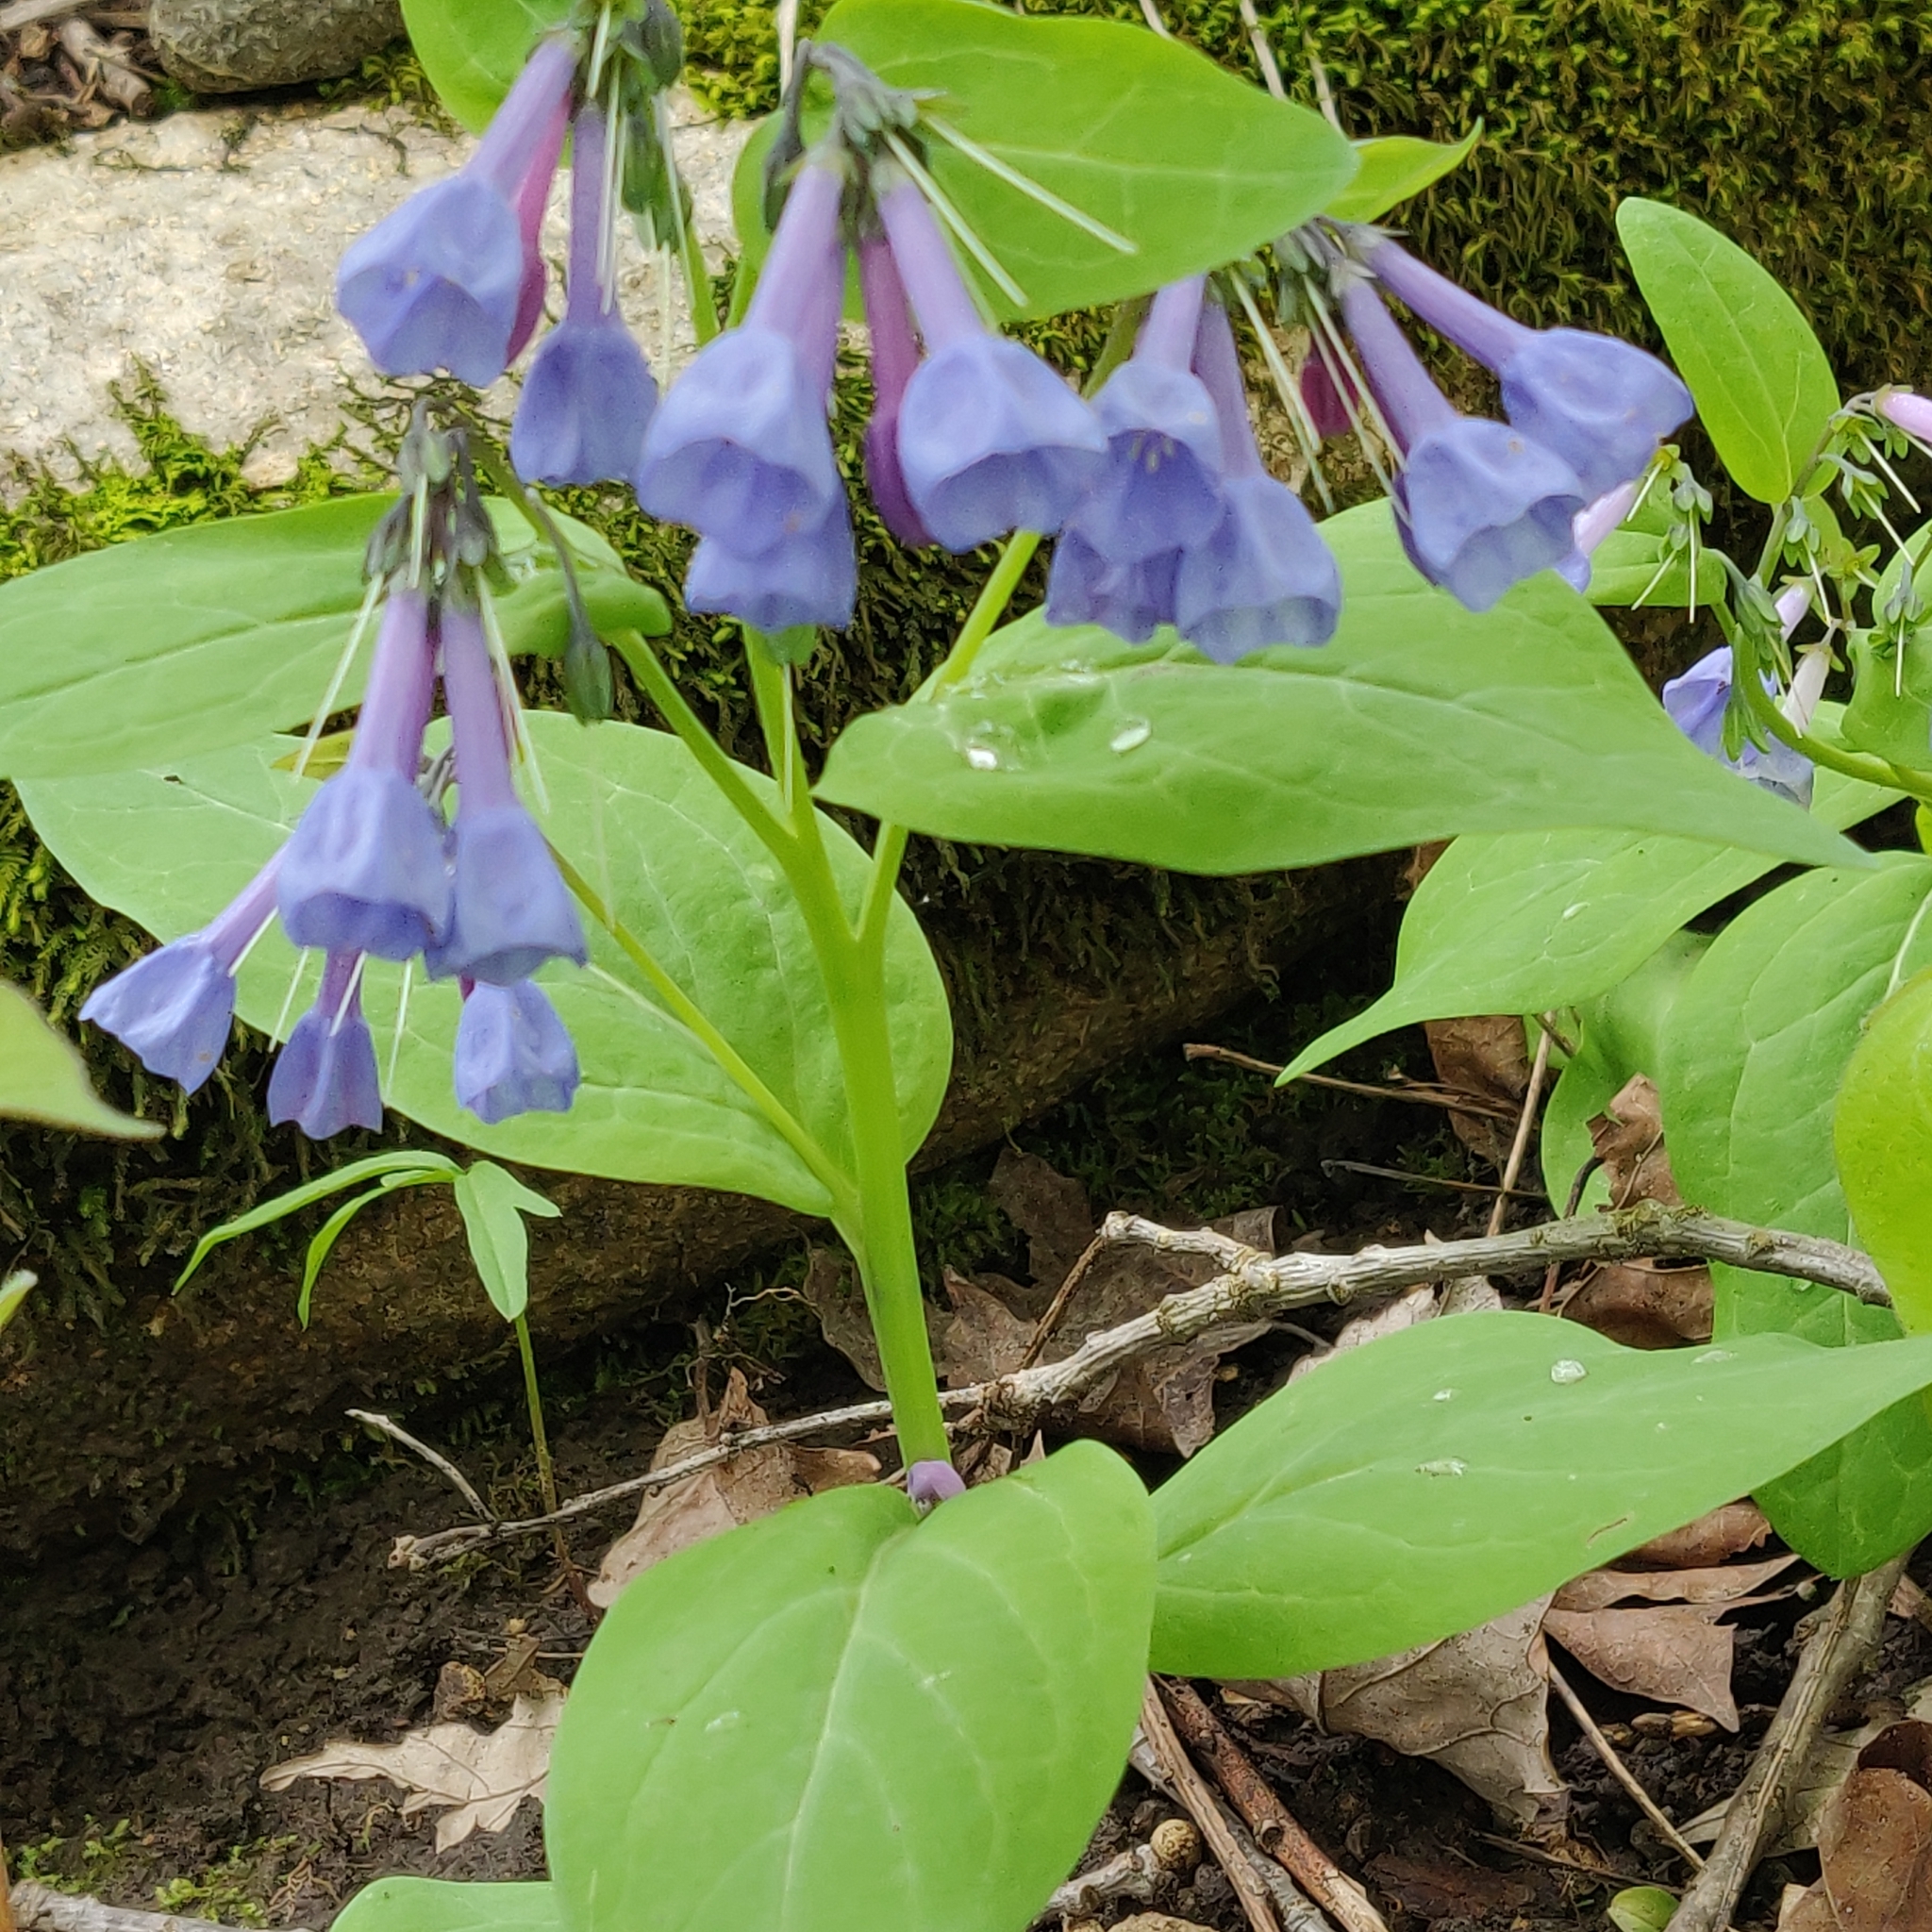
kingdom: Plantae
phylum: Tracheophyta
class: Magnoliopsida
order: Boraginales
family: Boraginaceae
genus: Mertensia
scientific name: Mertensia virginica
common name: Virginia bluebells
